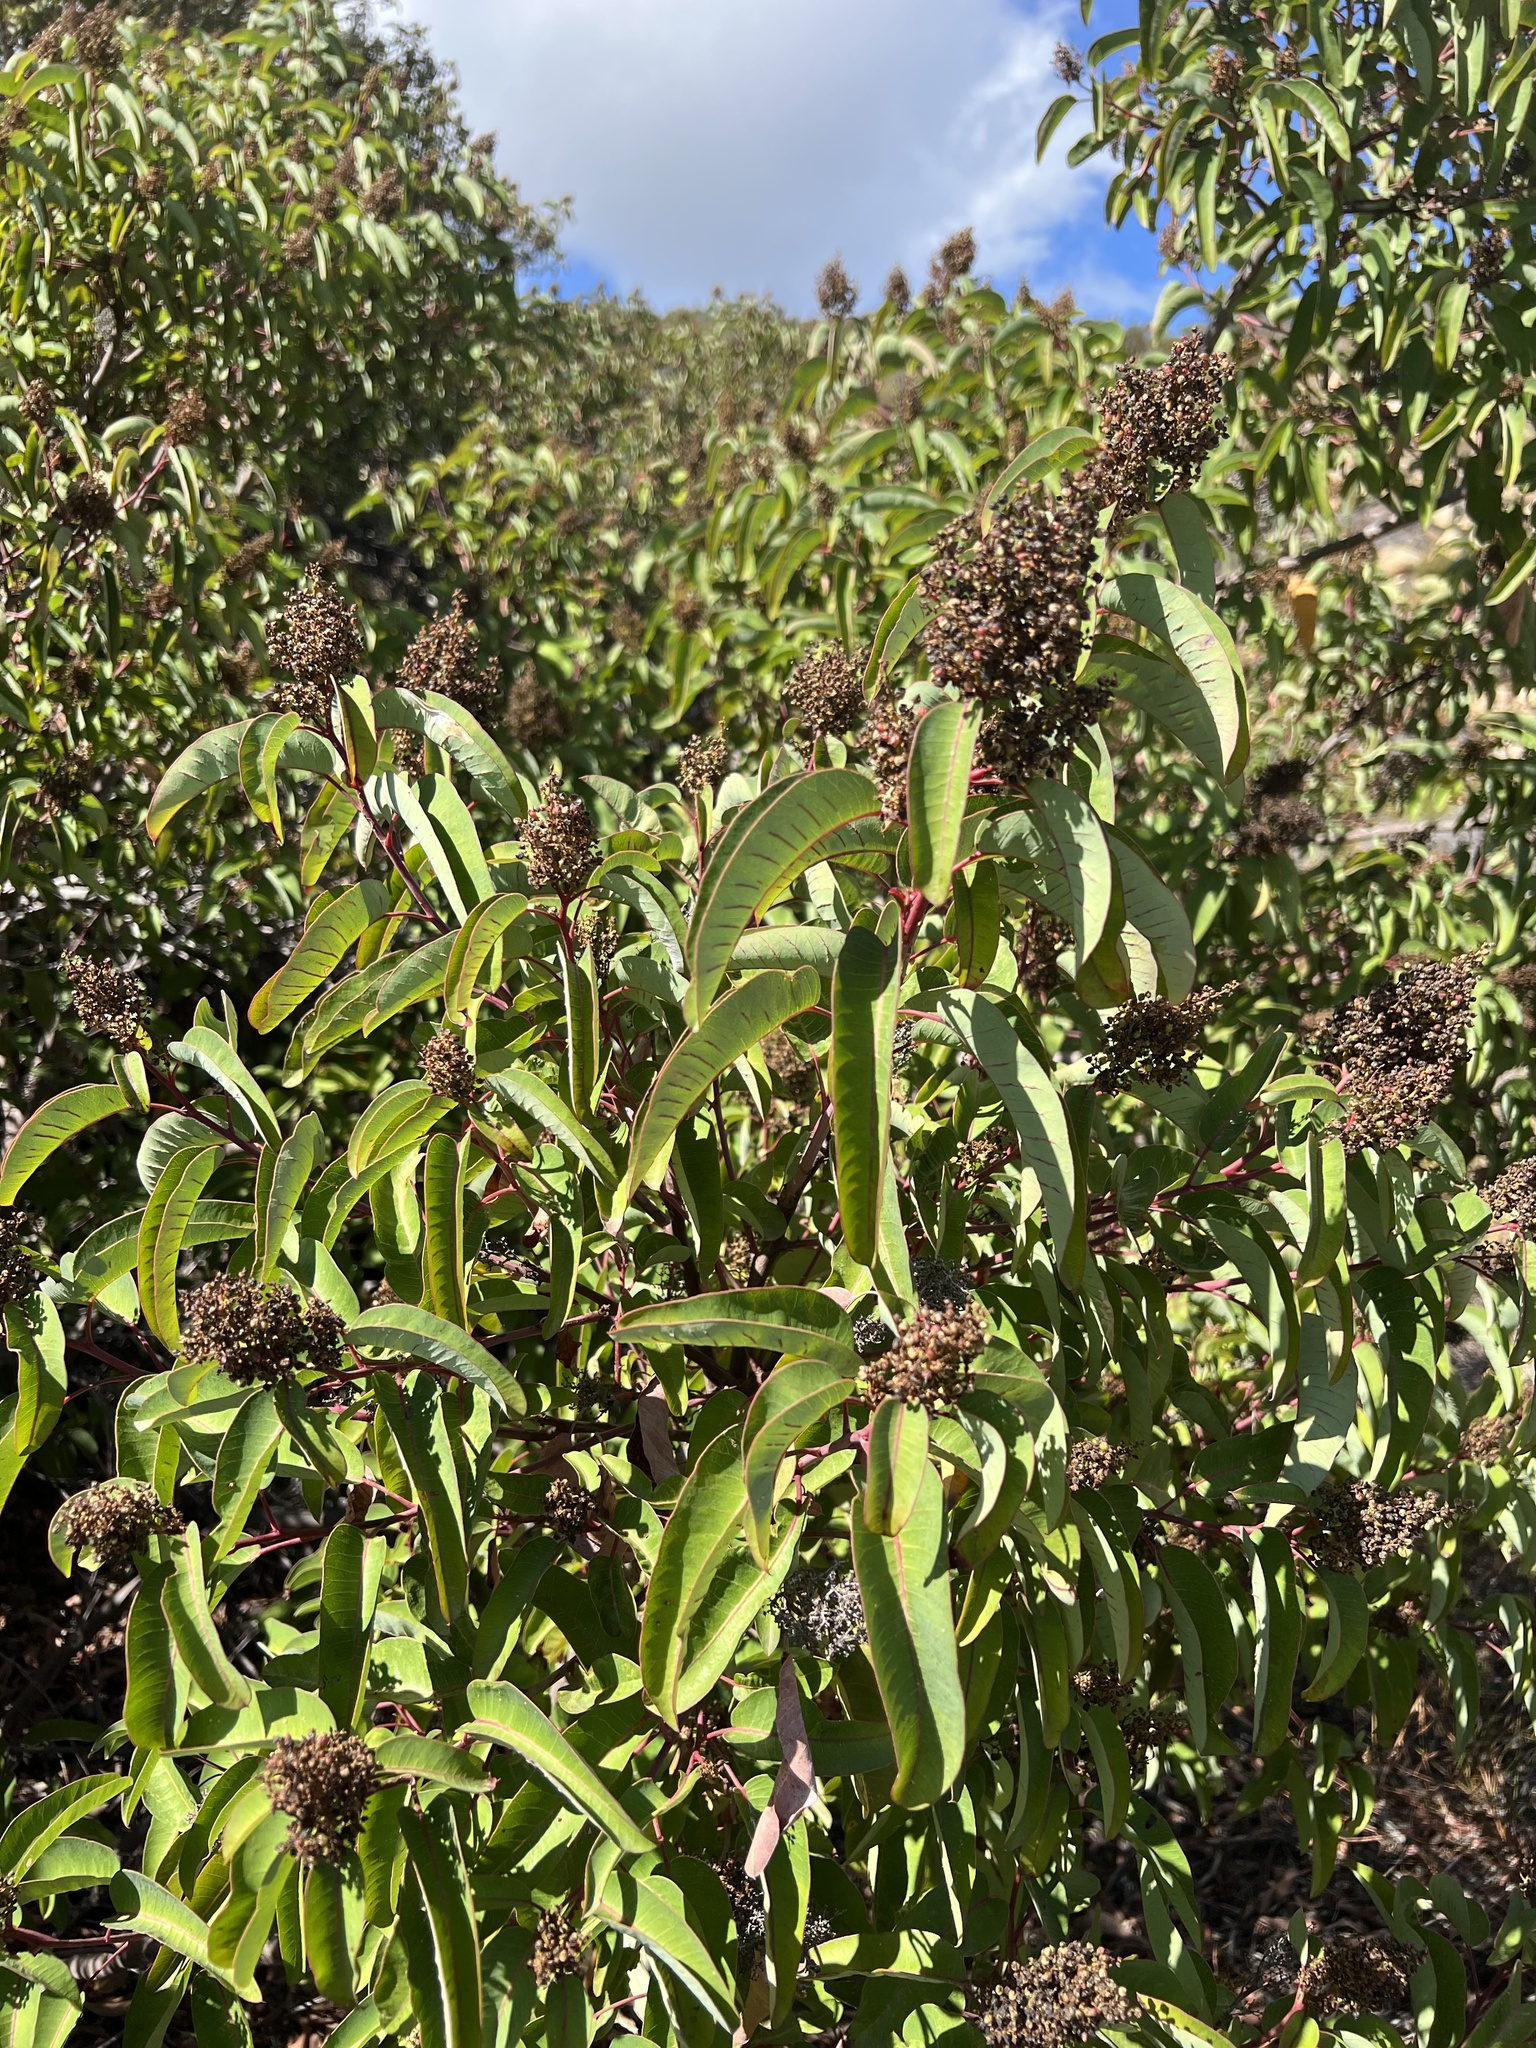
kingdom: Plantae
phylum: Tracheophyta
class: Magnoliopsida
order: Sapindales
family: Anacardiaceae
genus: Malosma
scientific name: Malosma laurina
